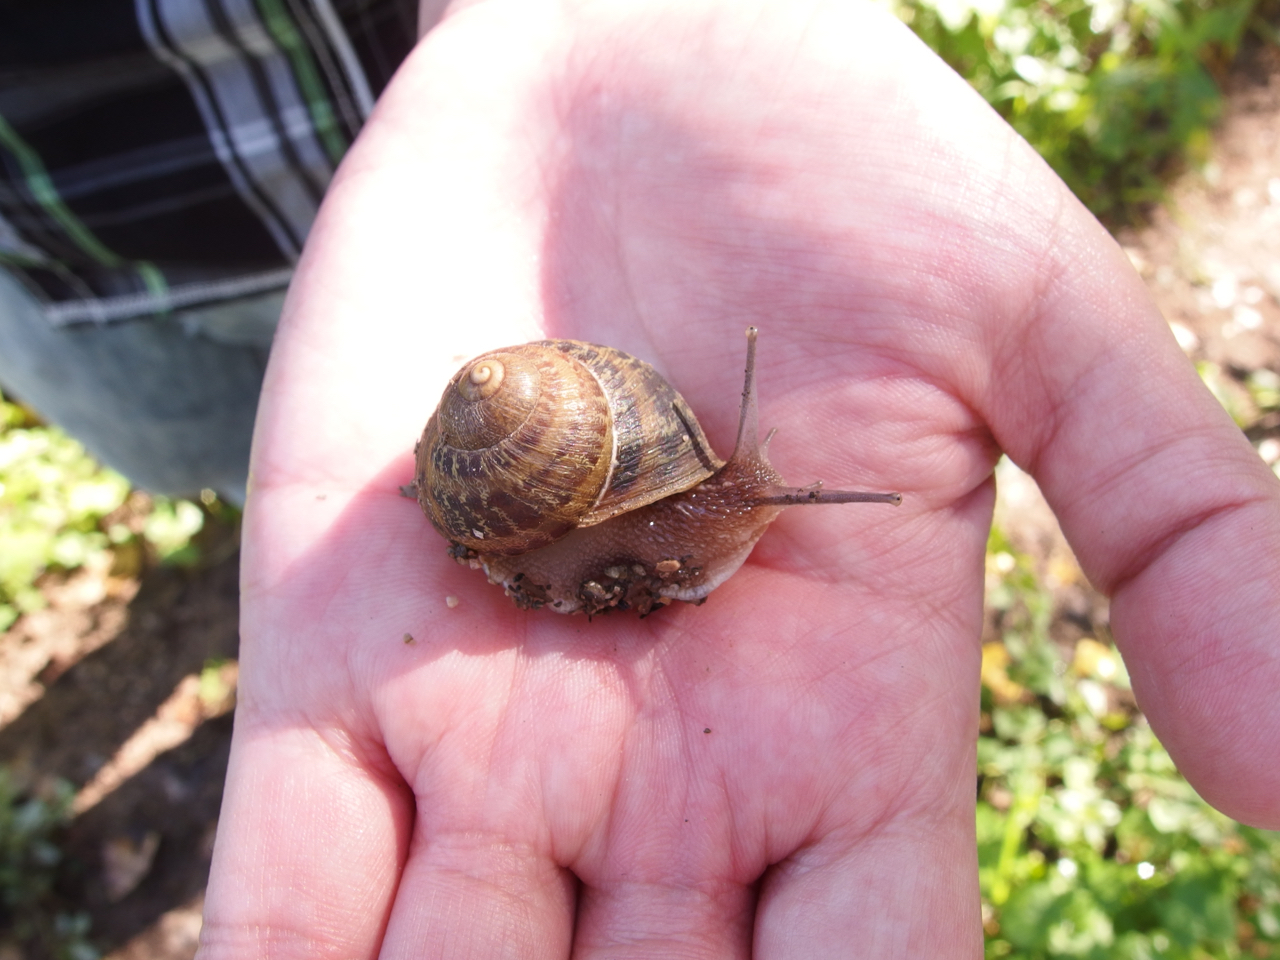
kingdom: Animalia
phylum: Mollusca
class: Gastropoda
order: Stylommatophora
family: Helicidae
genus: Cornu
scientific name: Cornu aspersum
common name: Brown garden snail
